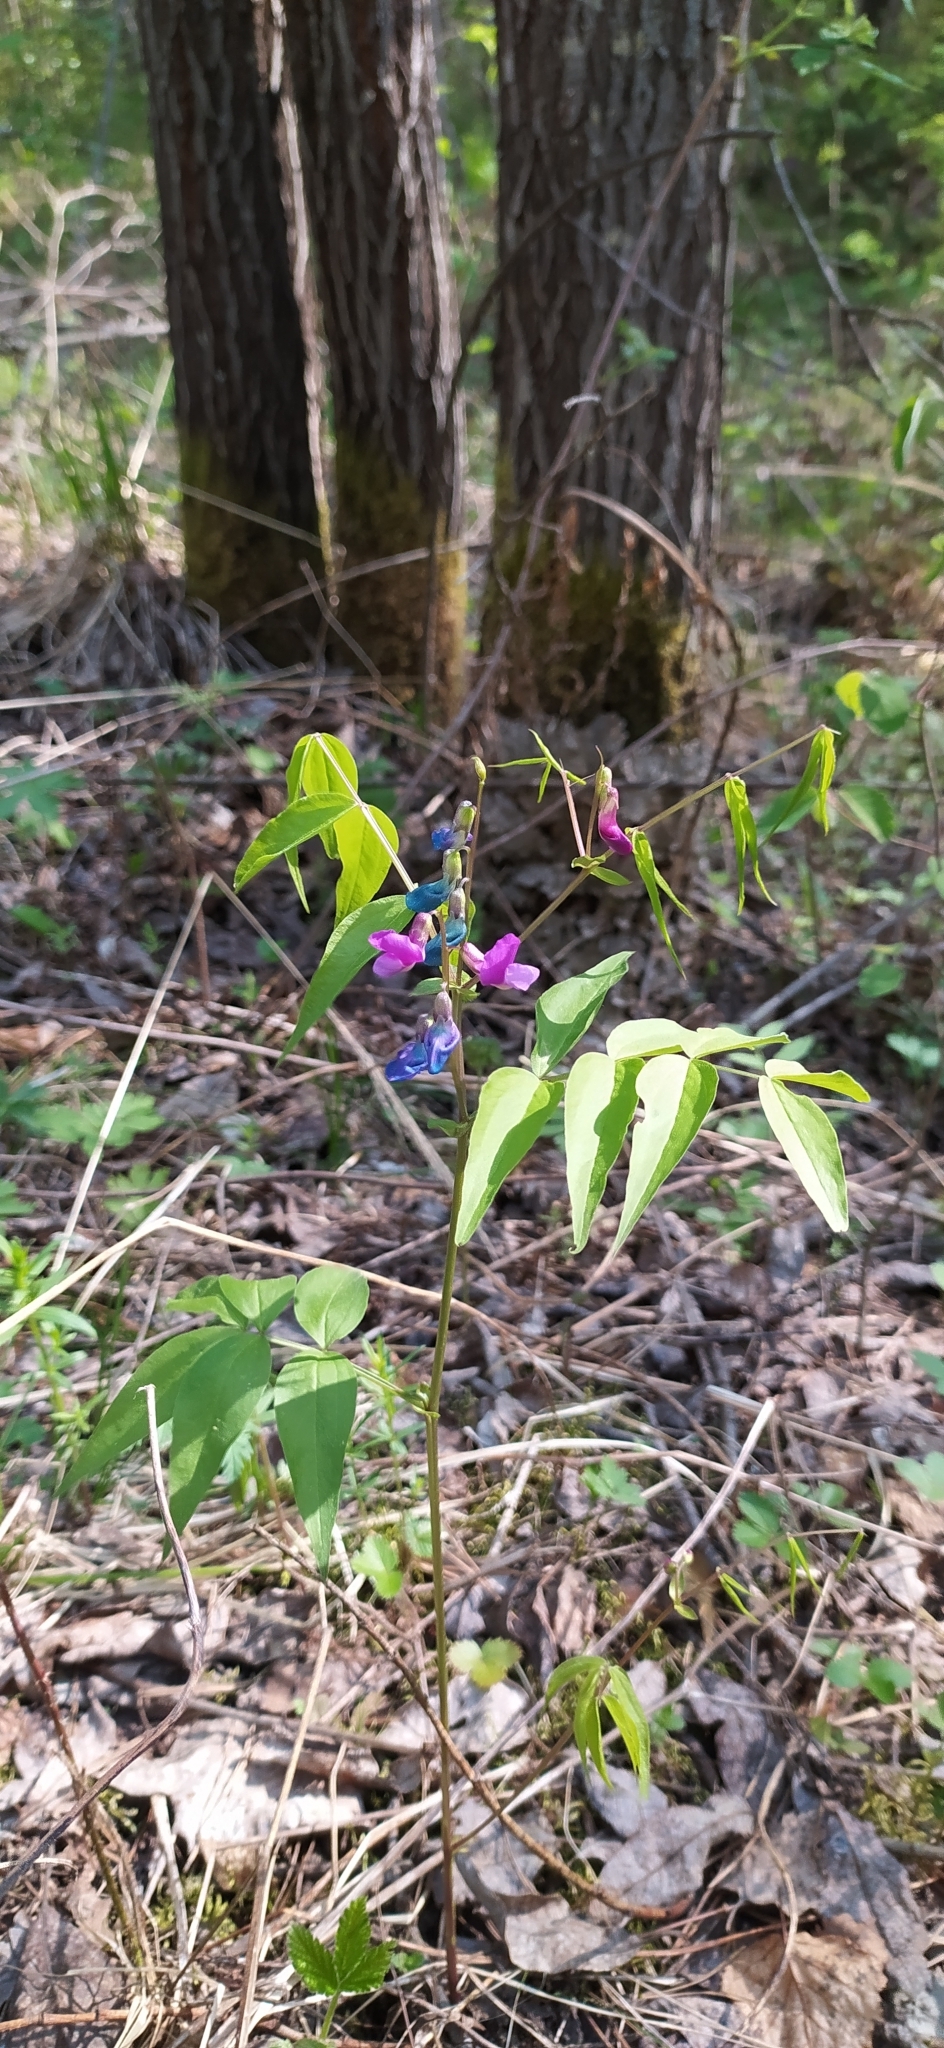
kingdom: Plantae
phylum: Tracheophyta
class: Magnoliopsida
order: Fabales
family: Fabaceae
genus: Lathyrus
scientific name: Lathyrus vernus
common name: Spring pea
